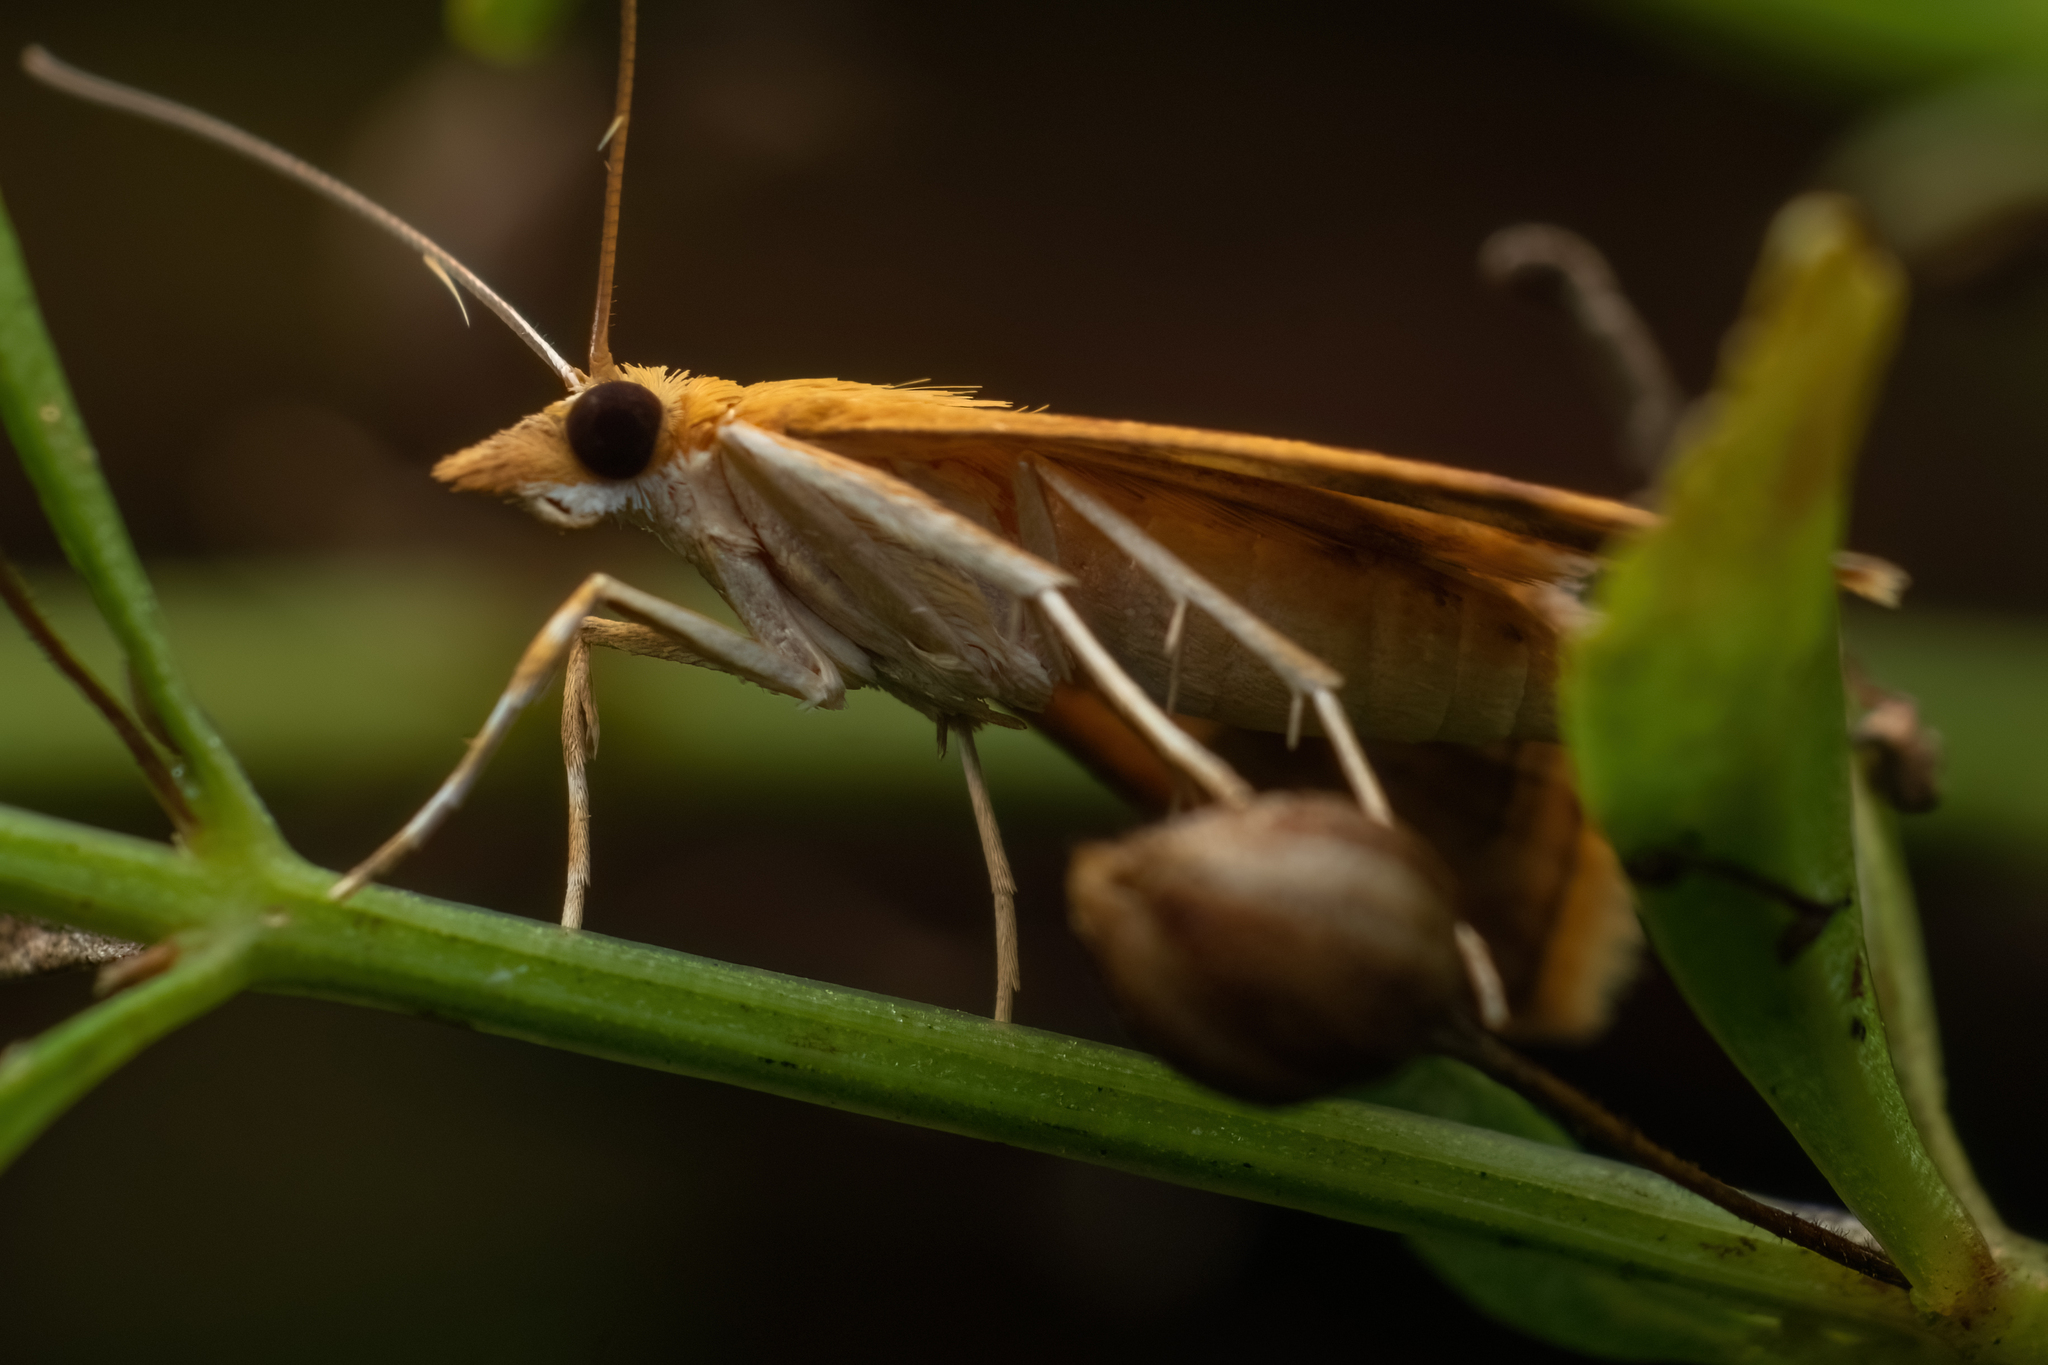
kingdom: Animalia
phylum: Arthropoda
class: Insecta
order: Lepidoptera
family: Crambidae
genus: Pyrausta
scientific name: Pyrausta phoenicealis
